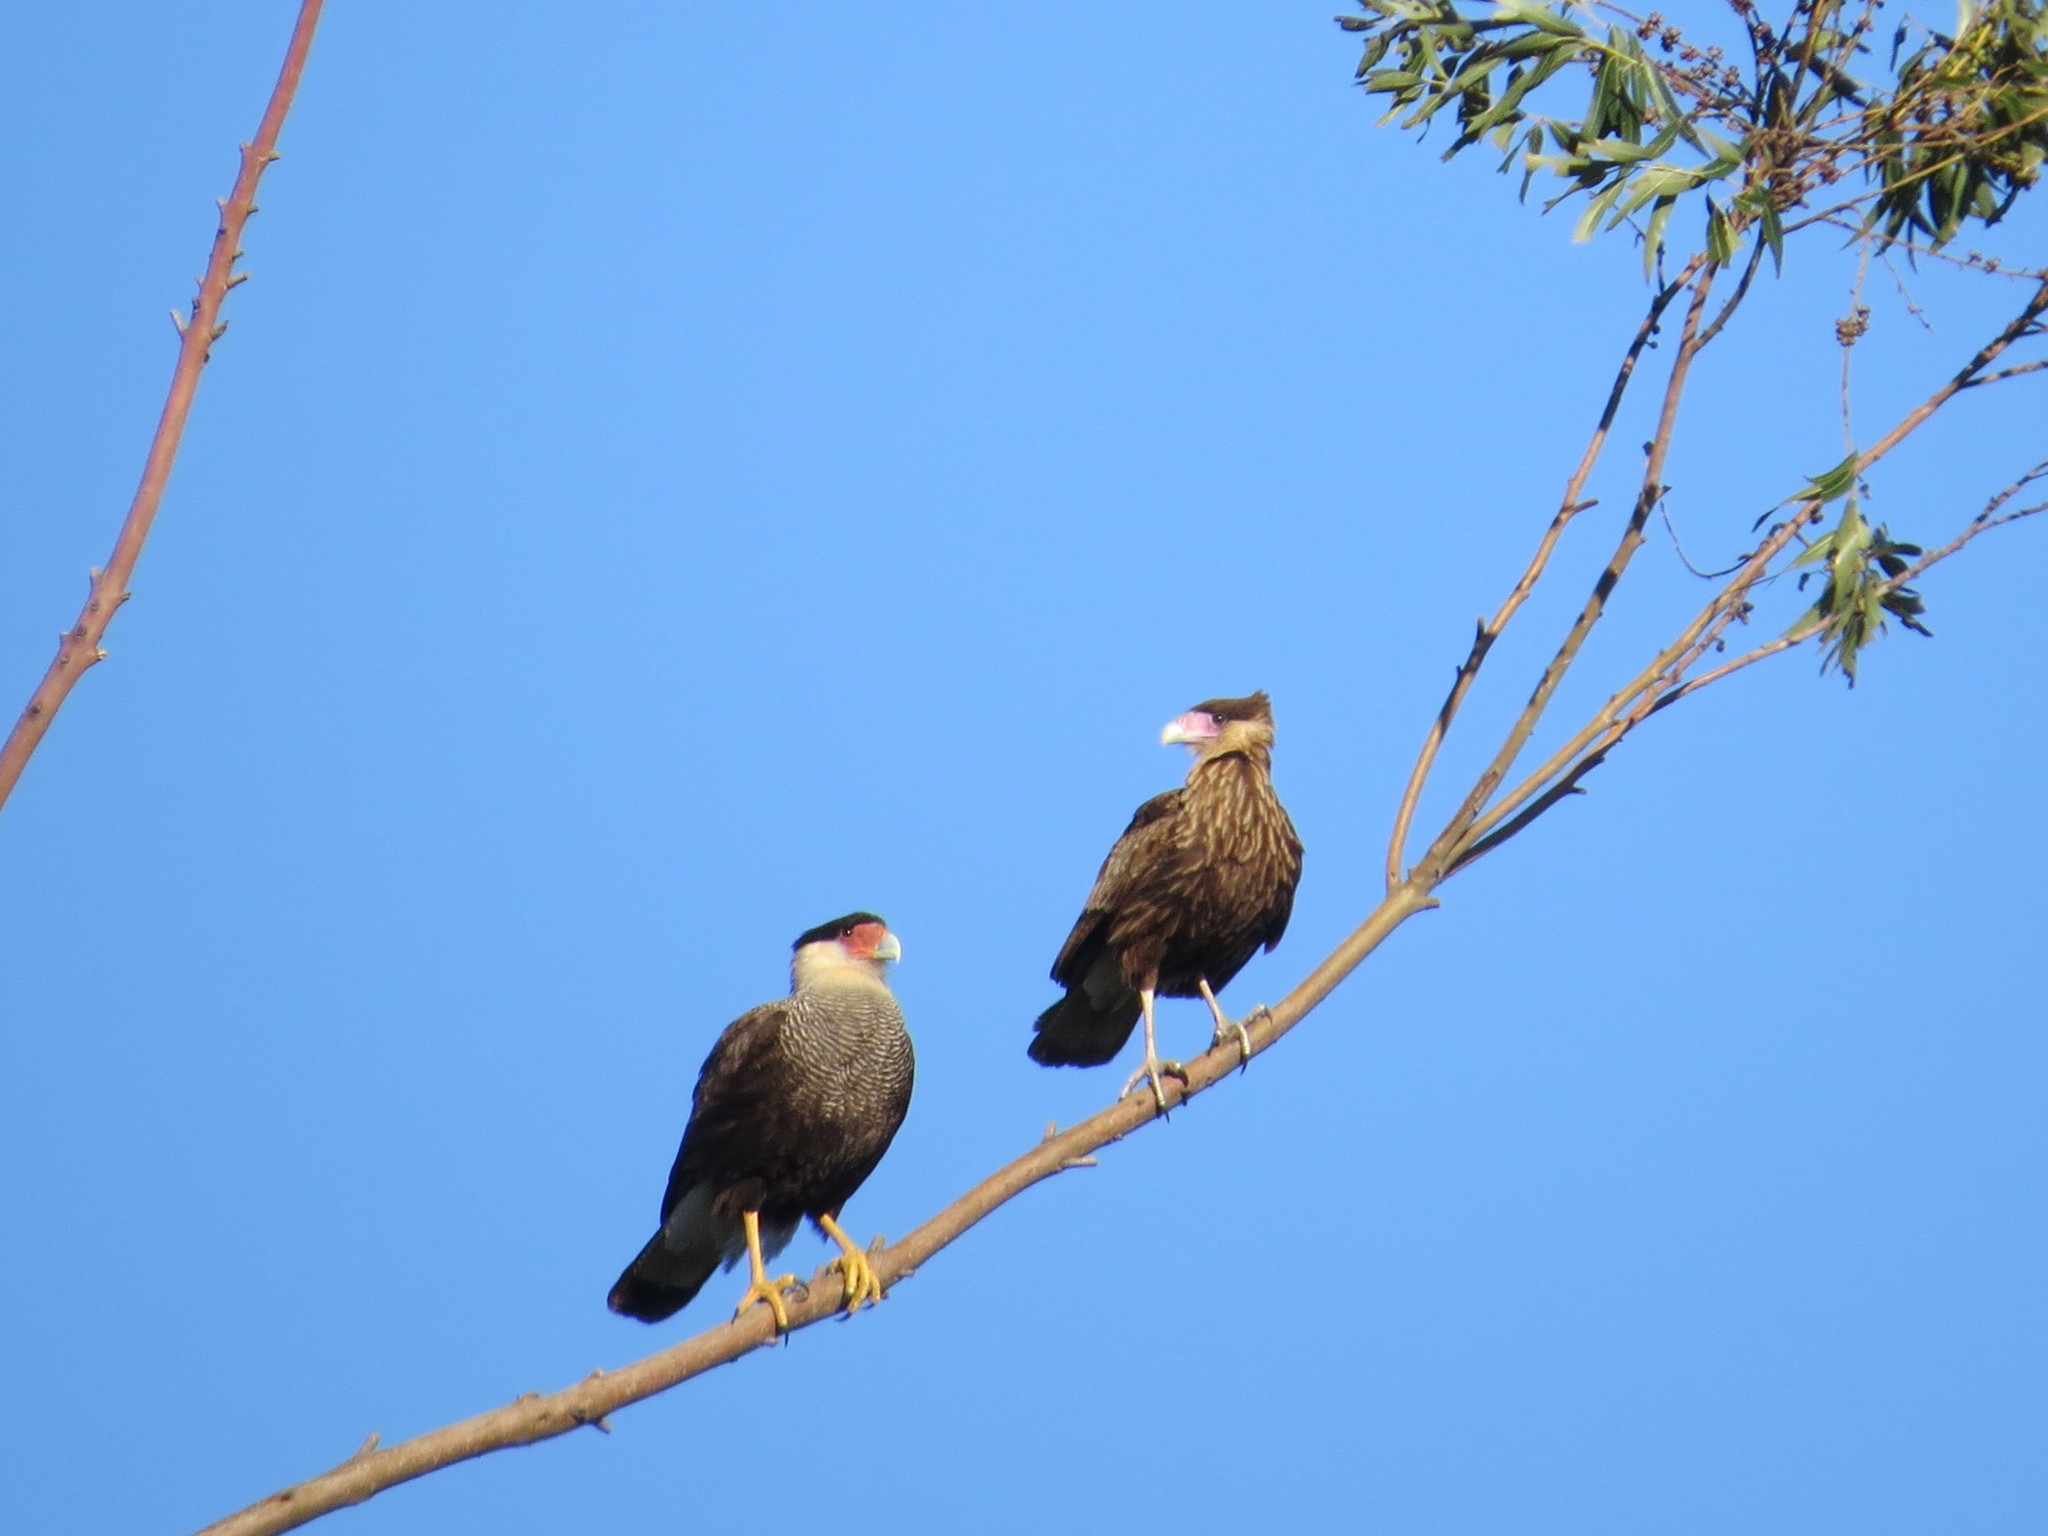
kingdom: Animalia
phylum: Chordata
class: Aves
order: Falconiformes
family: Falconidae
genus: Caracara
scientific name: Caracara plancus
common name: Southern caracara
